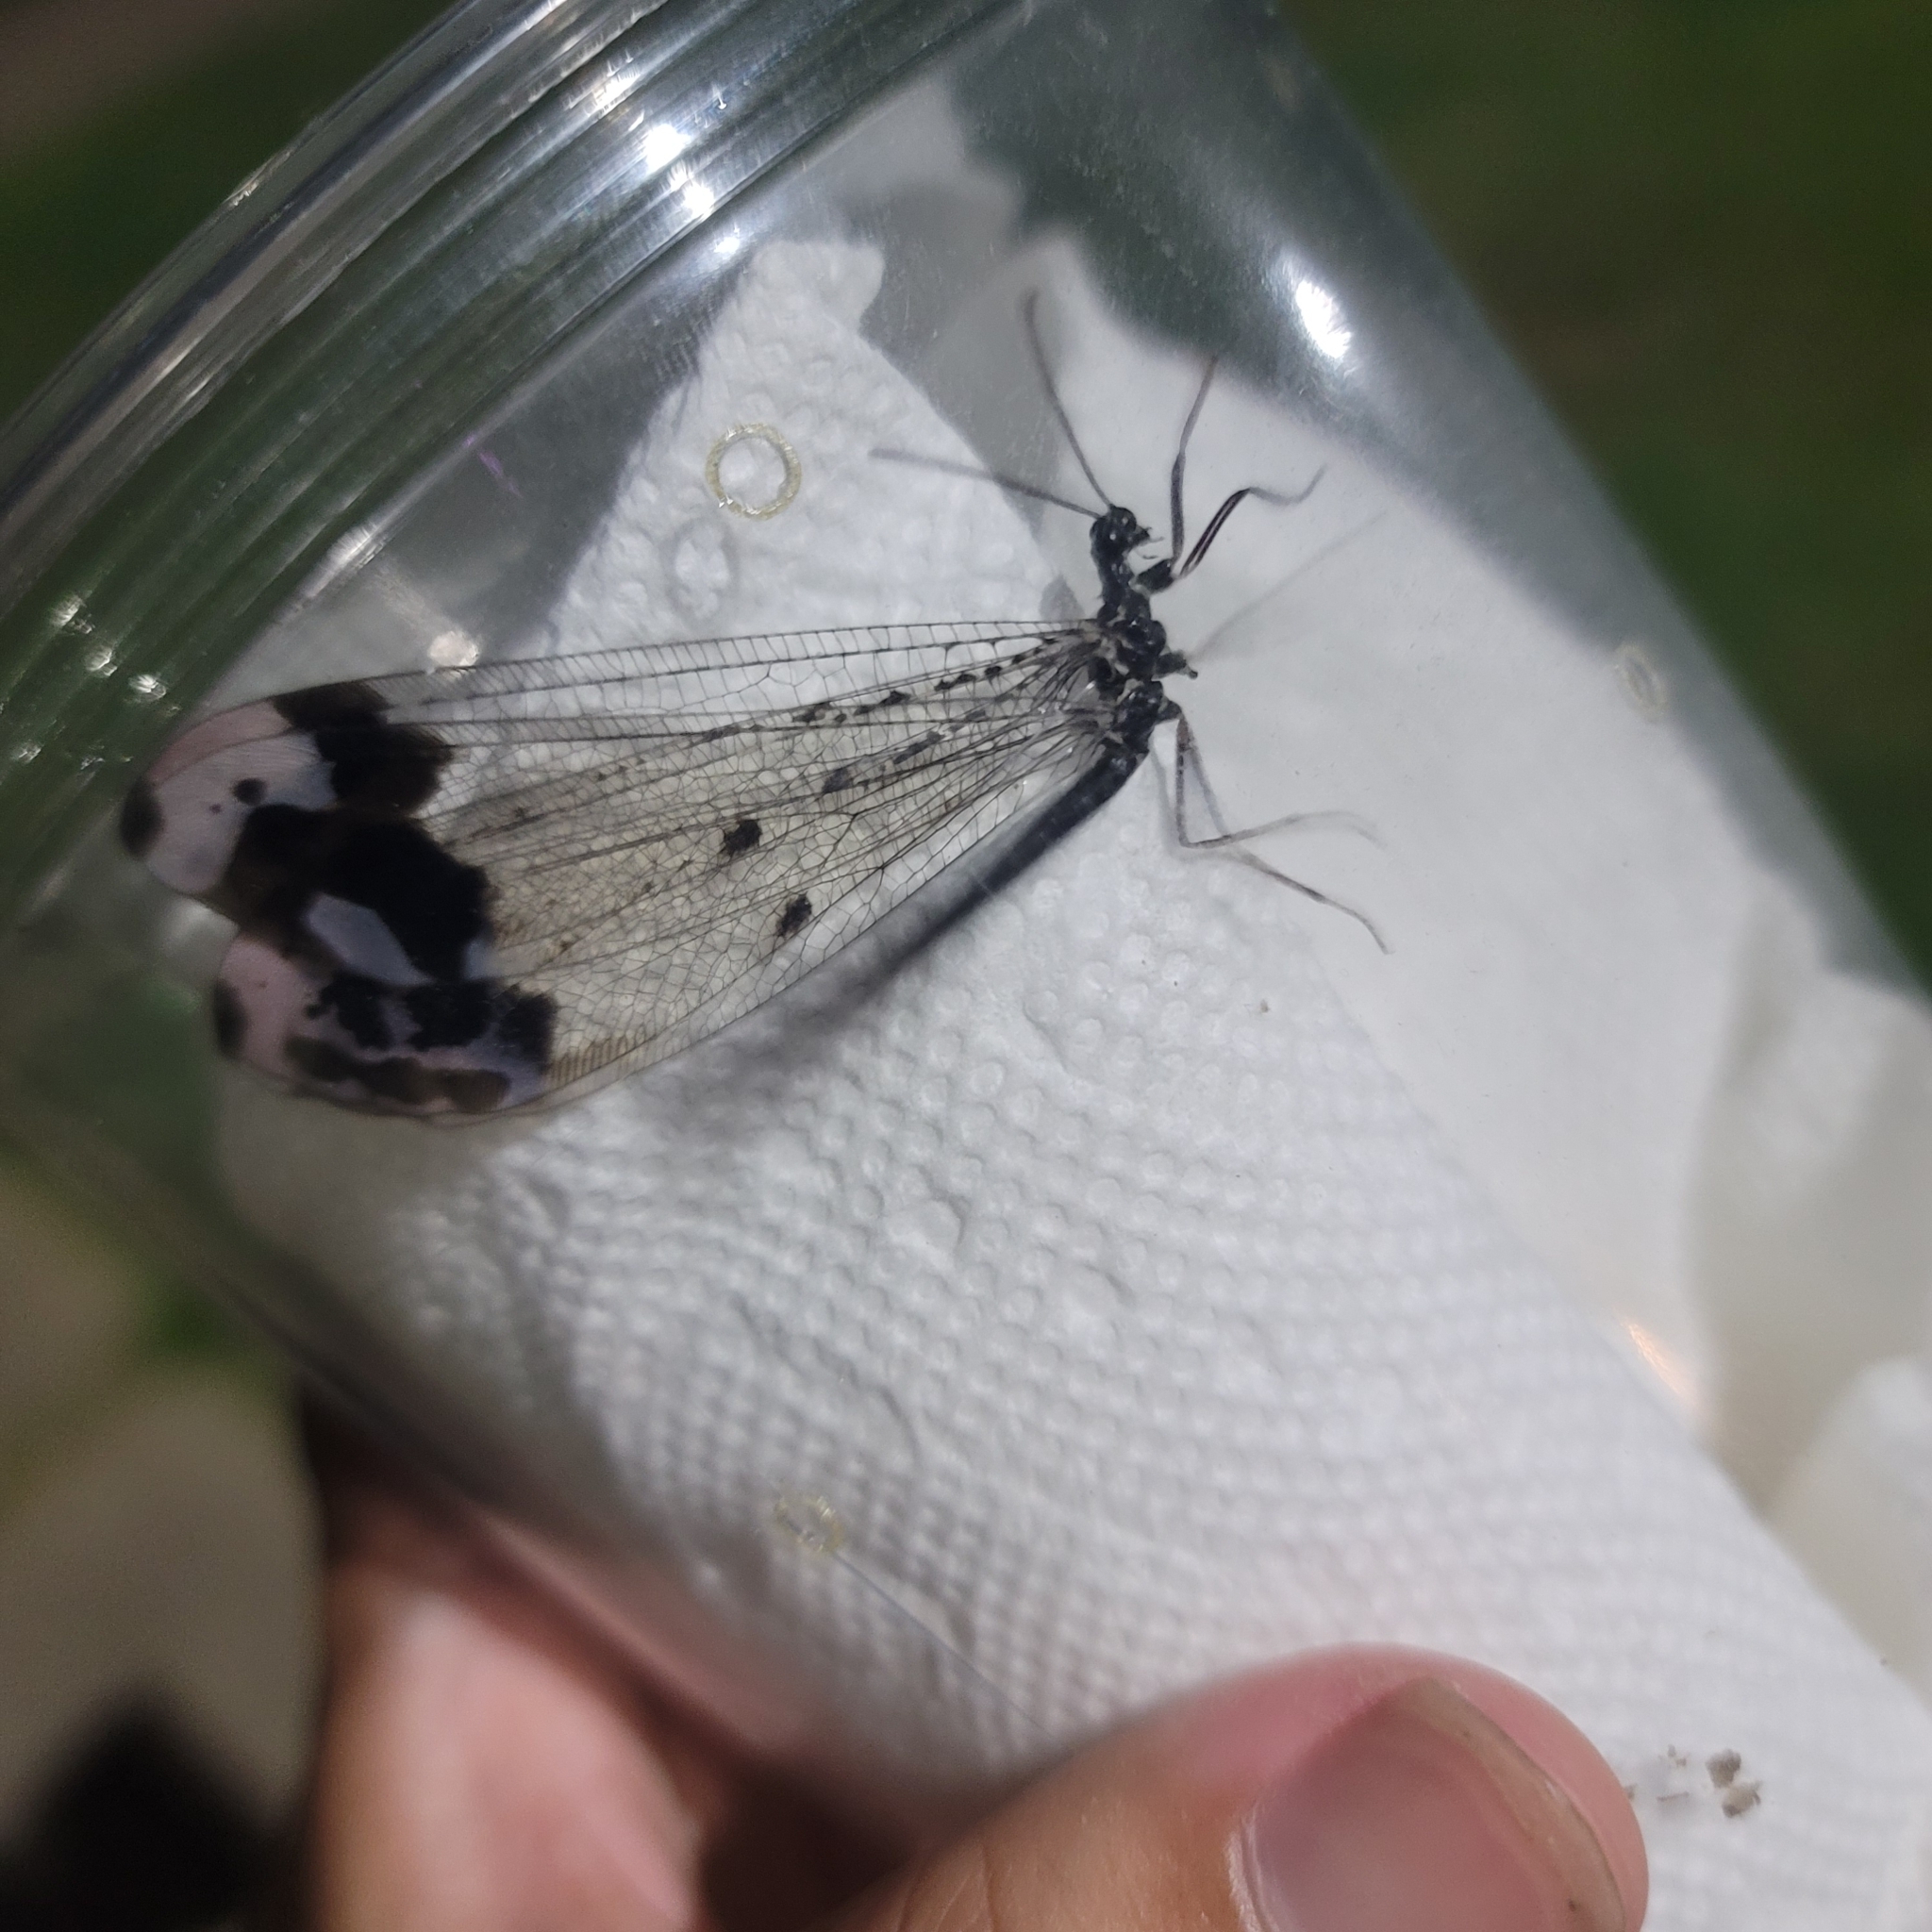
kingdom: Animalia
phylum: Arthropoda
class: Insecta
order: Neuroptera
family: Myrmeleontidae
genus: Glenurus
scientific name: Glenurus gratus
